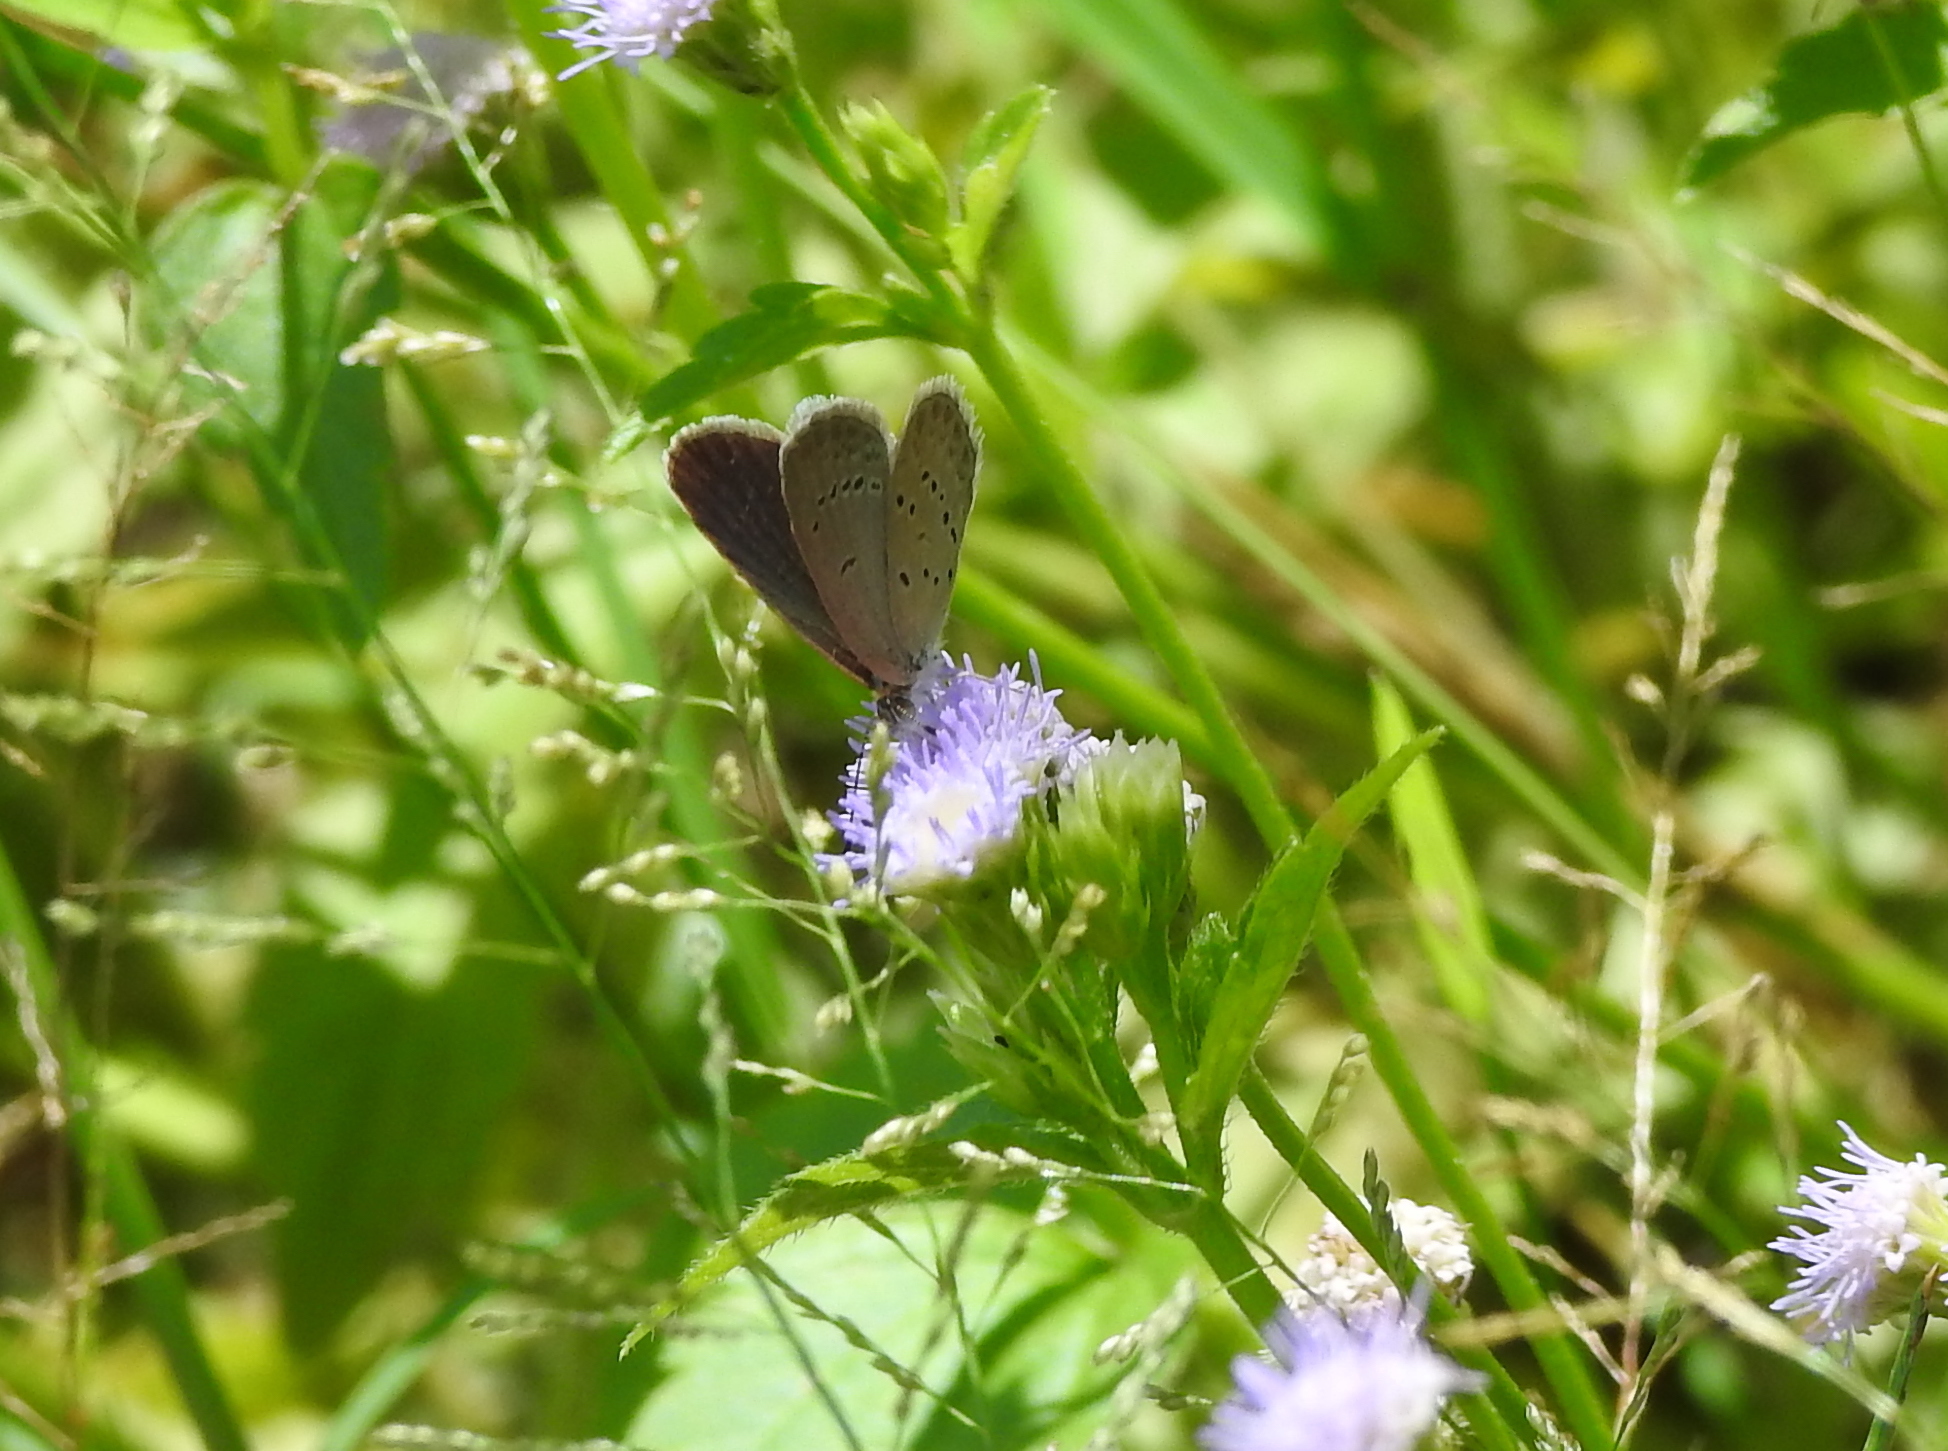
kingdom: Animalia
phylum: Arthropoda
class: Insecta
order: Lepidoptera
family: Lycaenidae
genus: Zizina
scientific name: Zizina otis
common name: Lesser grass blue
